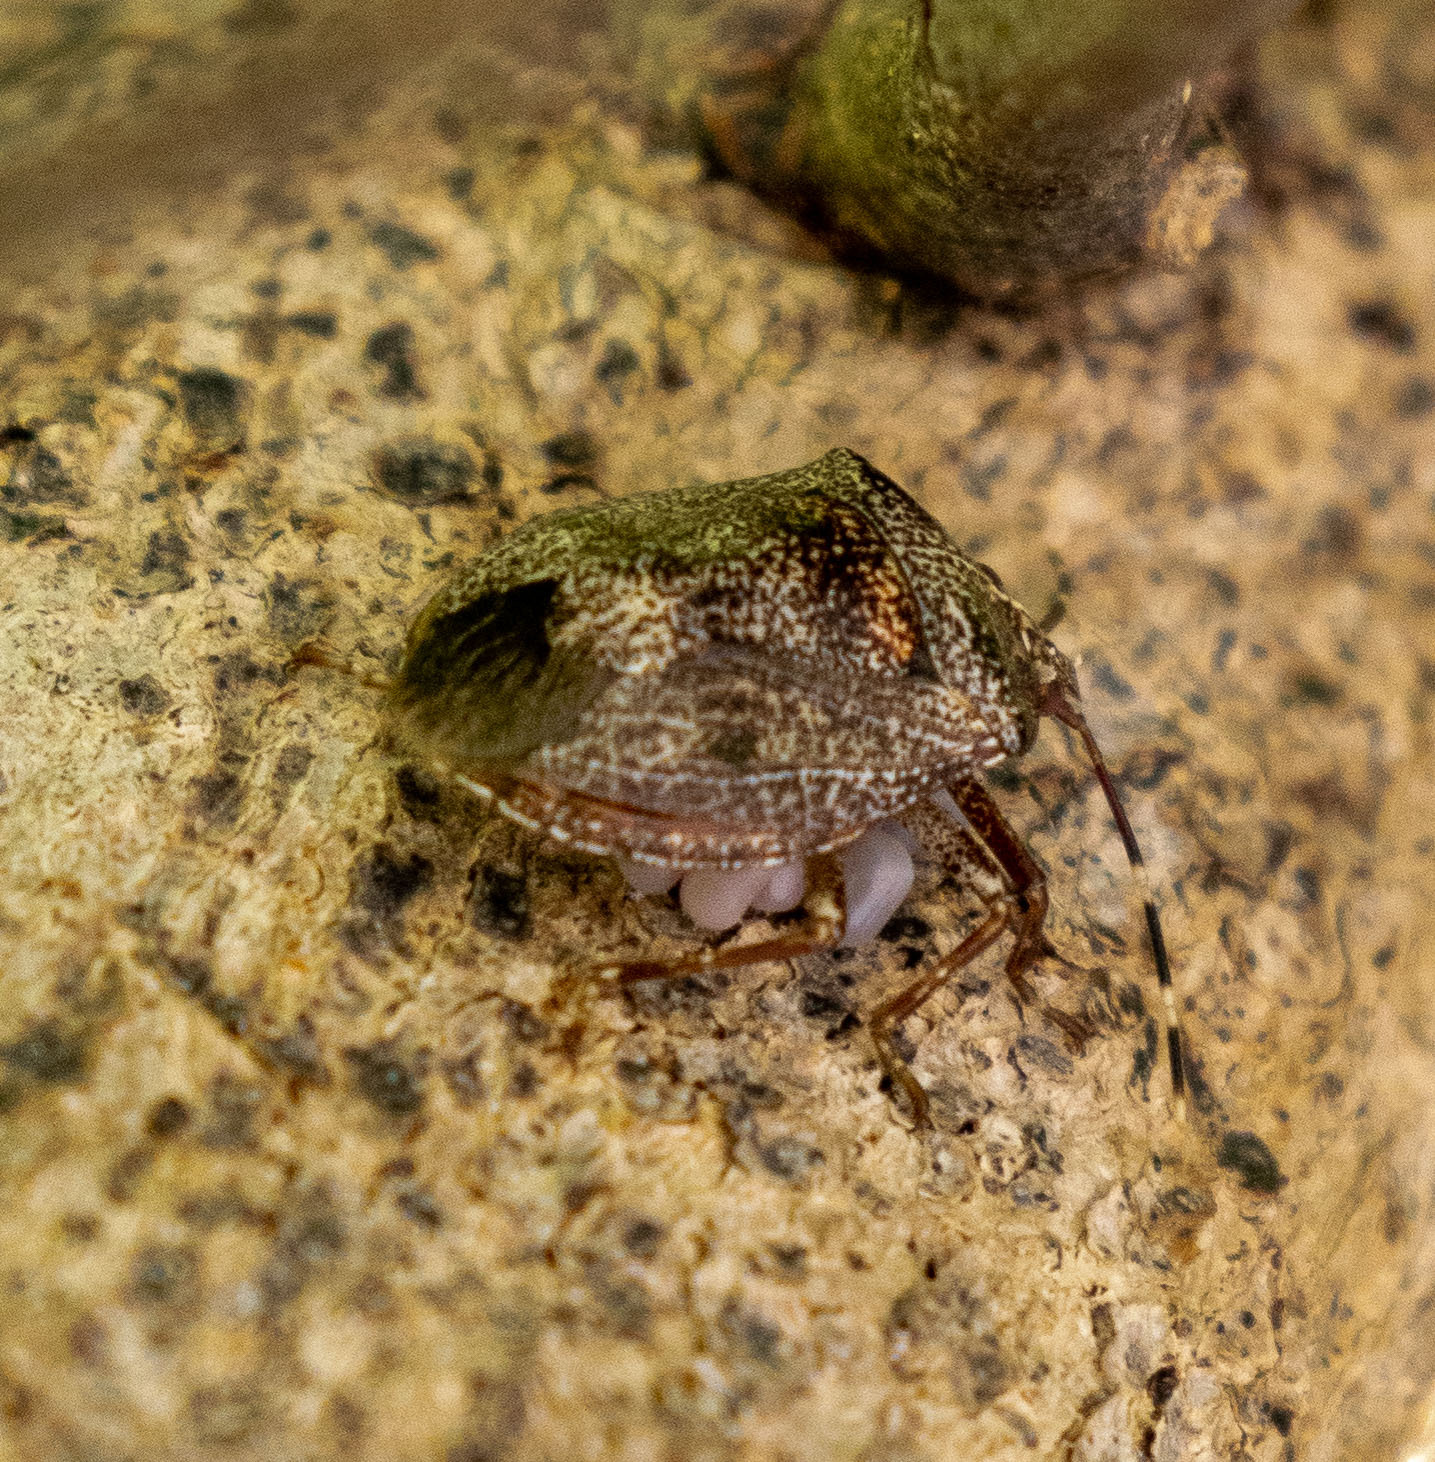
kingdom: Animalia
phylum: Arthropoda
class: Insecta
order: Hemiptera
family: Pentatomidae
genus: Antiteuchus
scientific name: Antiteuchus mixtus
